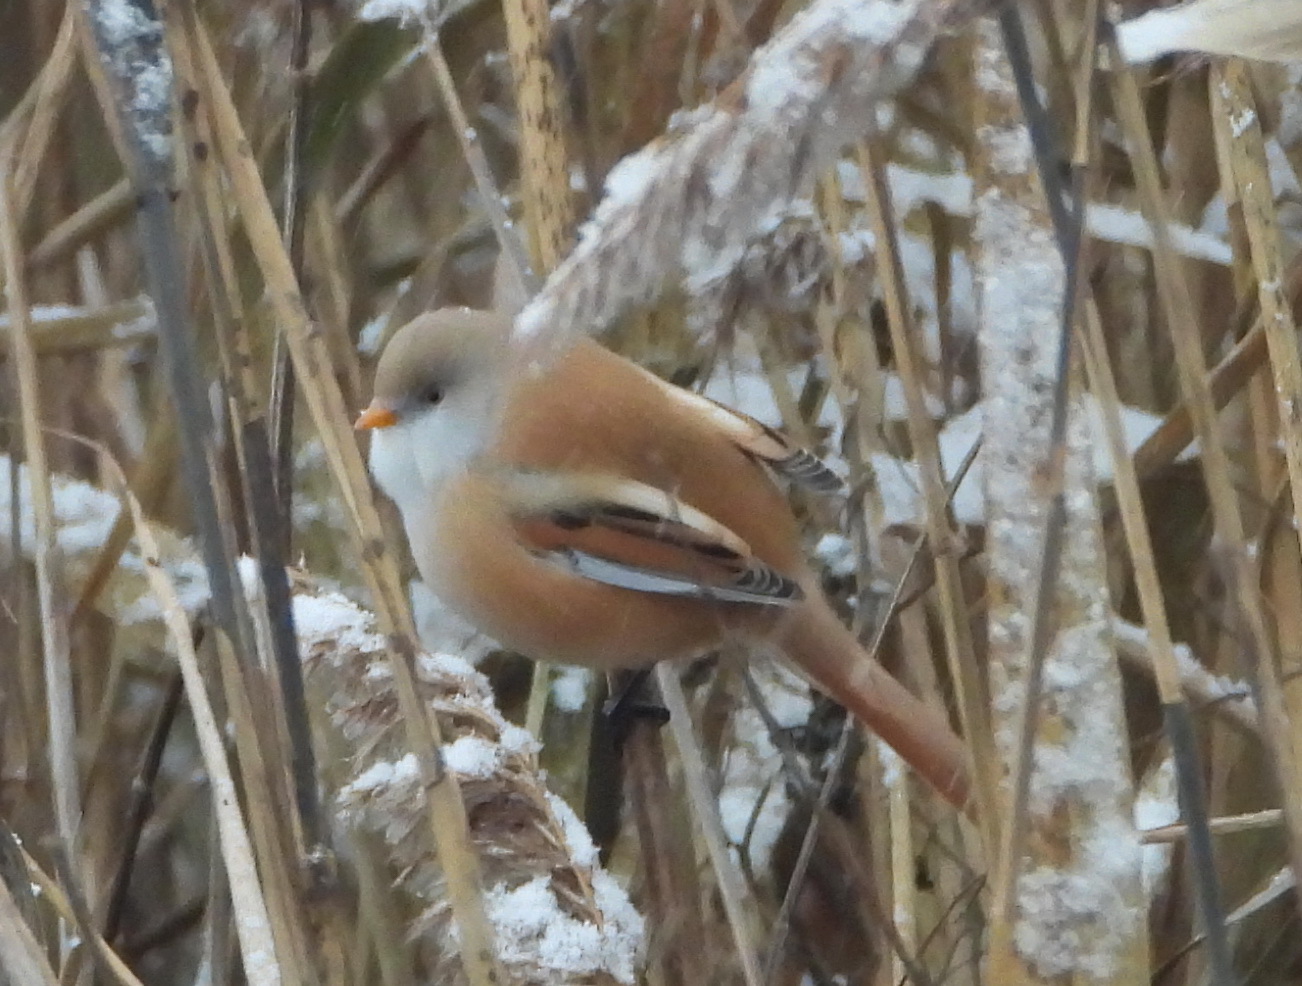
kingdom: Animalia
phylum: Chordata
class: Aves
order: Passeriformes
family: Panuridae
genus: Panurus
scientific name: Panurus biarmicus
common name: Bearded reedling
